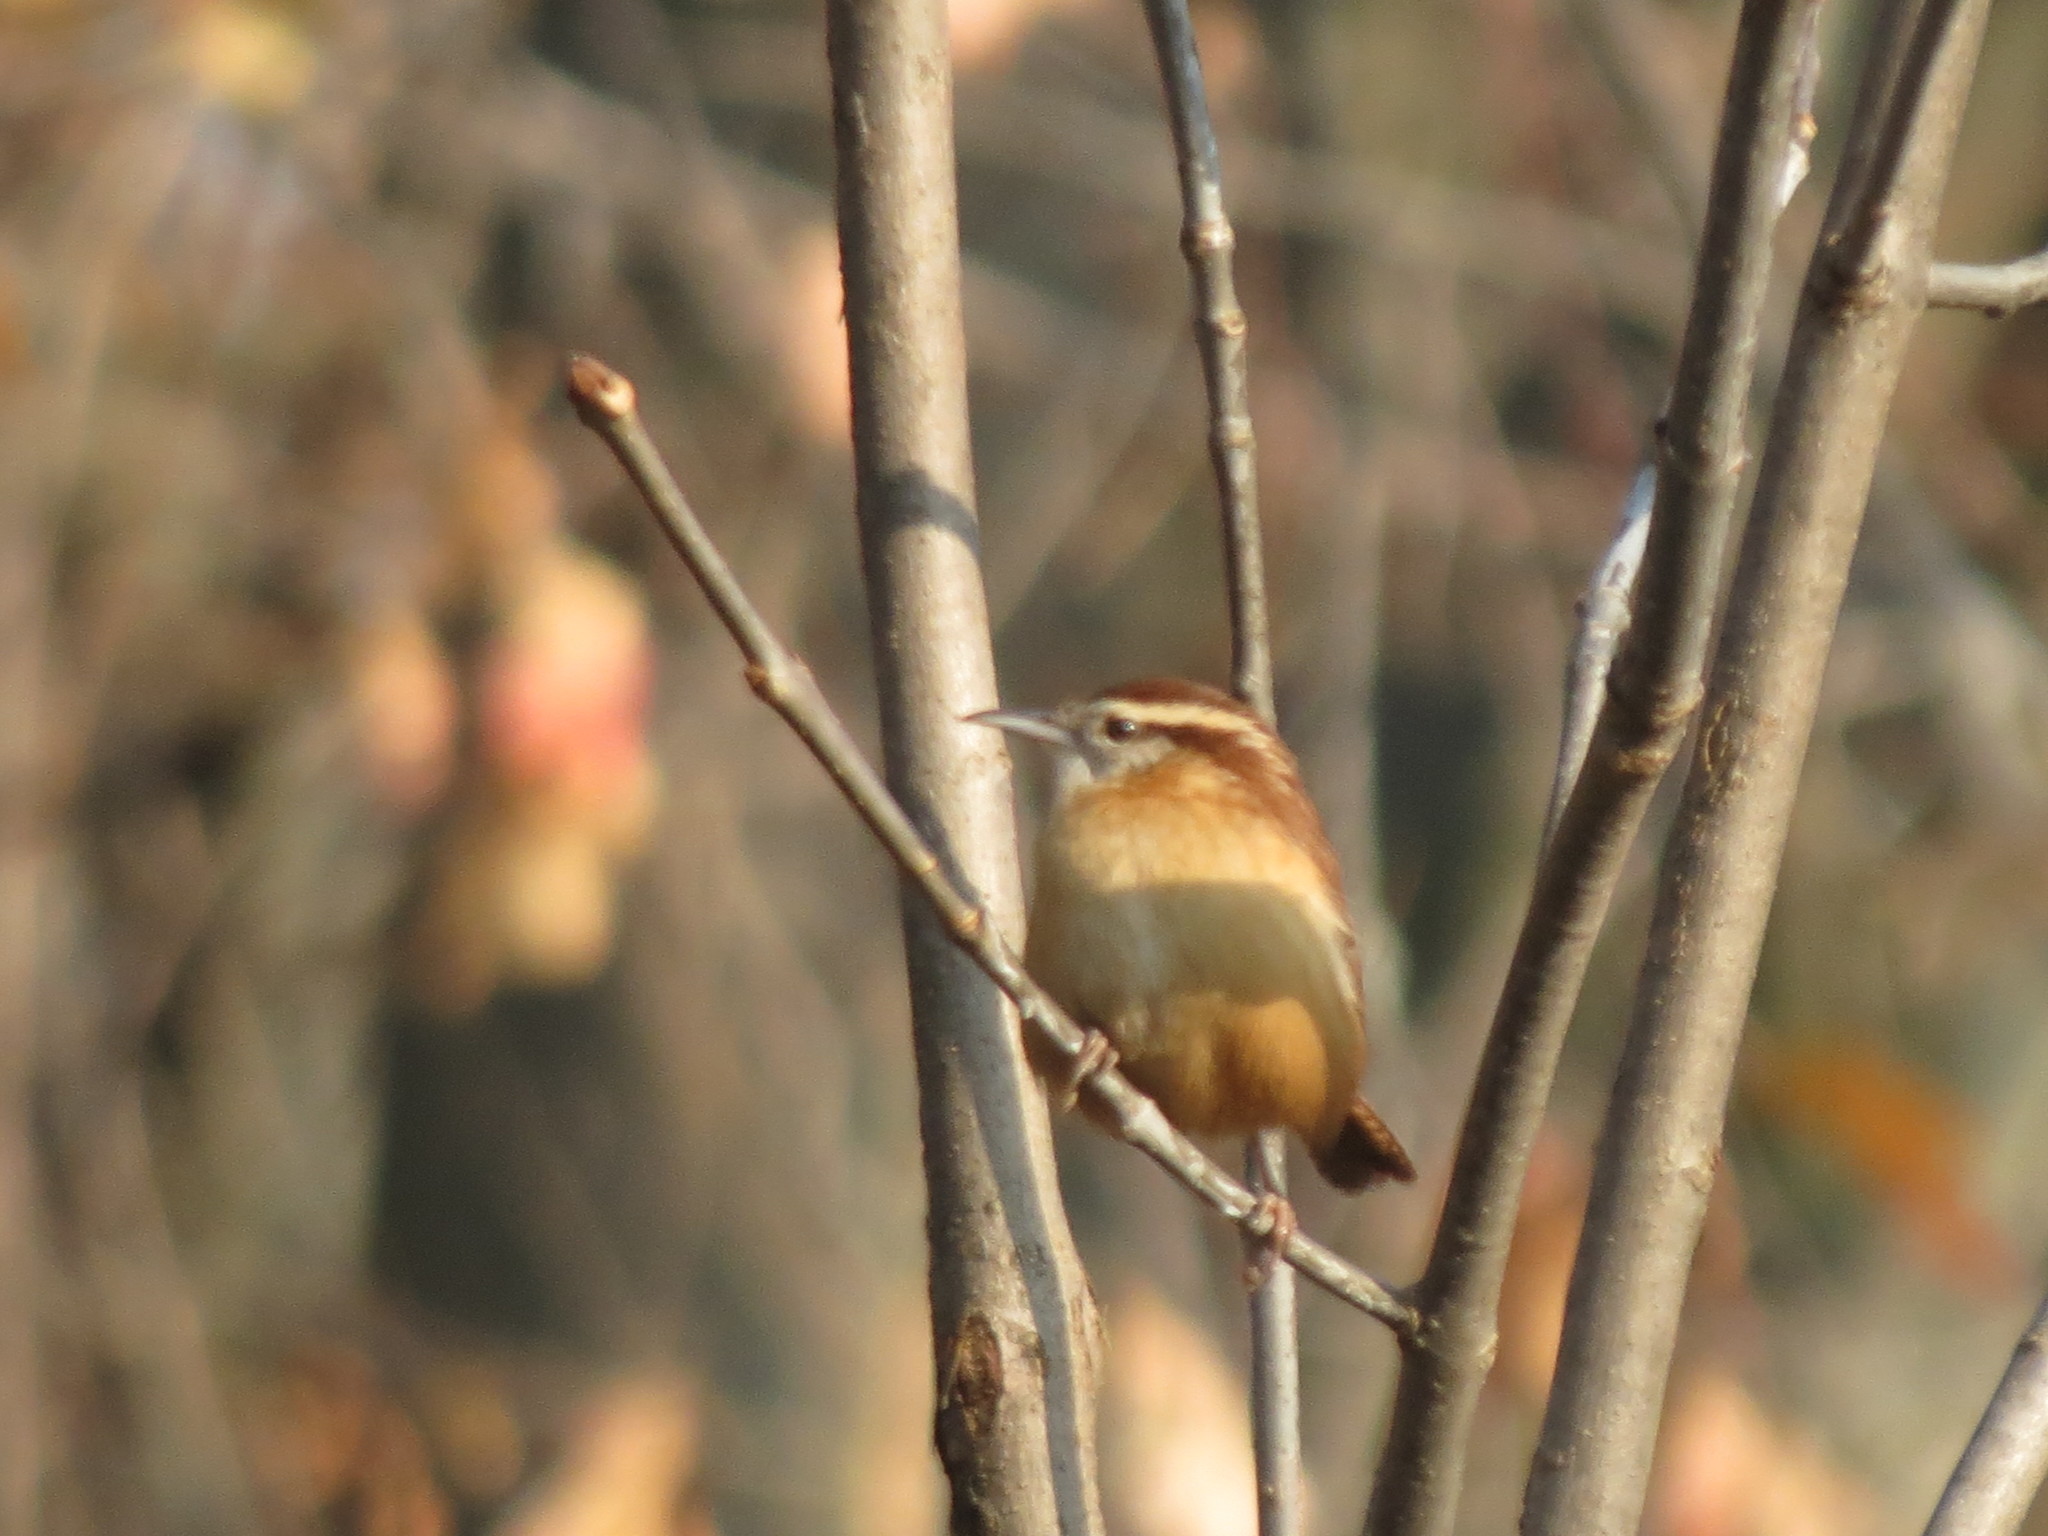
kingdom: Animalia
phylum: Chordata
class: Aves
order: Passeriformes
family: Troglodytidae
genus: Thryothorus
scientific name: Thryothorus ludovicianus
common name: Carolina wren
